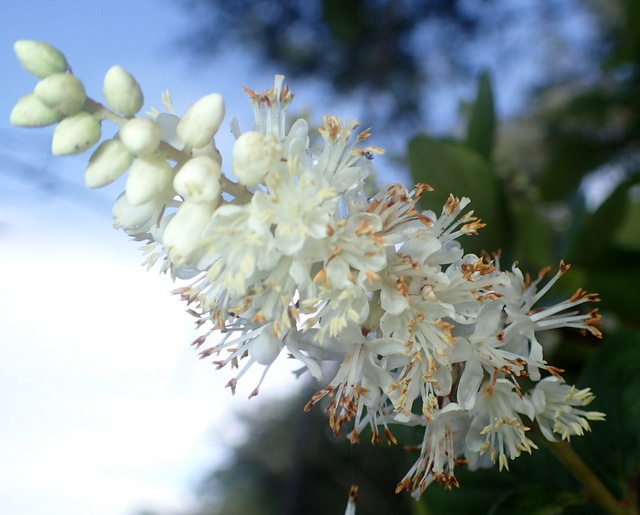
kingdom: Plantae
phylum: Tracheophyta
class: Magnoliopsida
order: Ericales
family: Clethraceae
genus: Clethra
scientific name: Clethra alnifolia
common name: Sweet pepperbush
